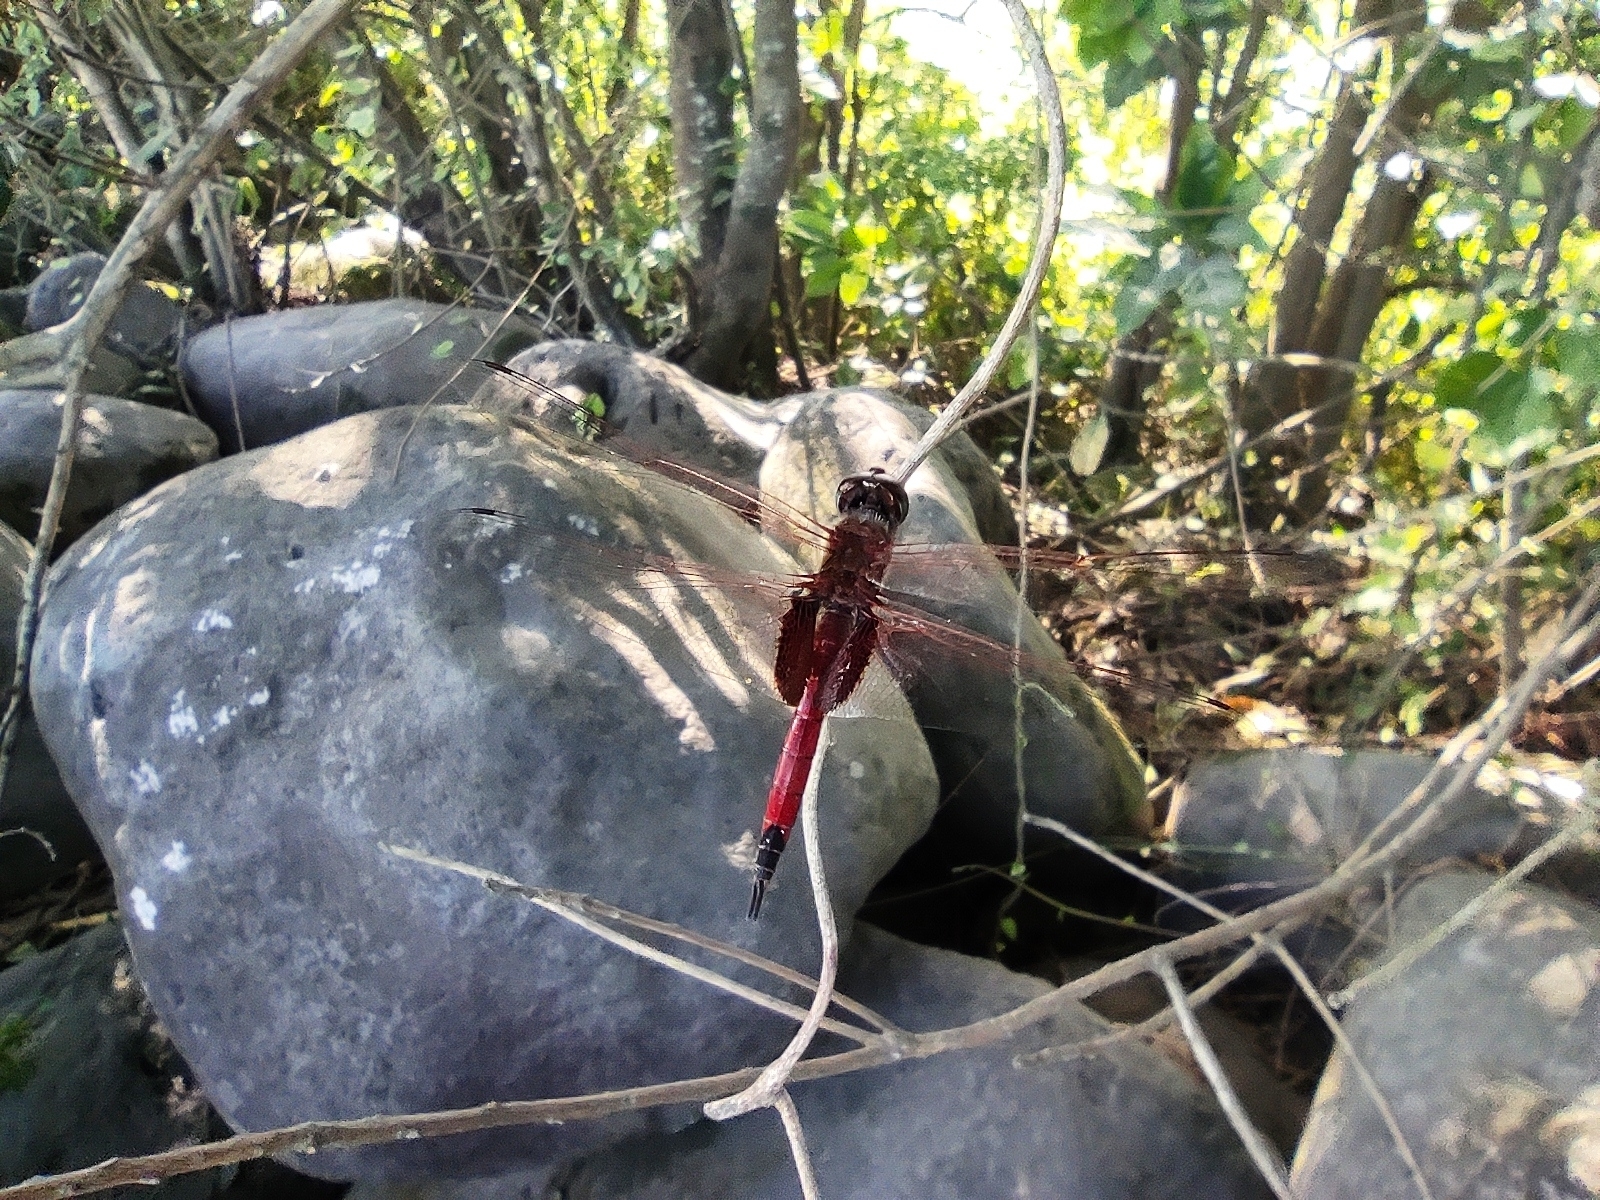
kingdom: Animalia
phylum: Arthropoda
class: Insecta
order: Odonata
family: Libellulidae
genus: Tramea
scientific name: Tramea limbata
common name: Ferruginous glider
